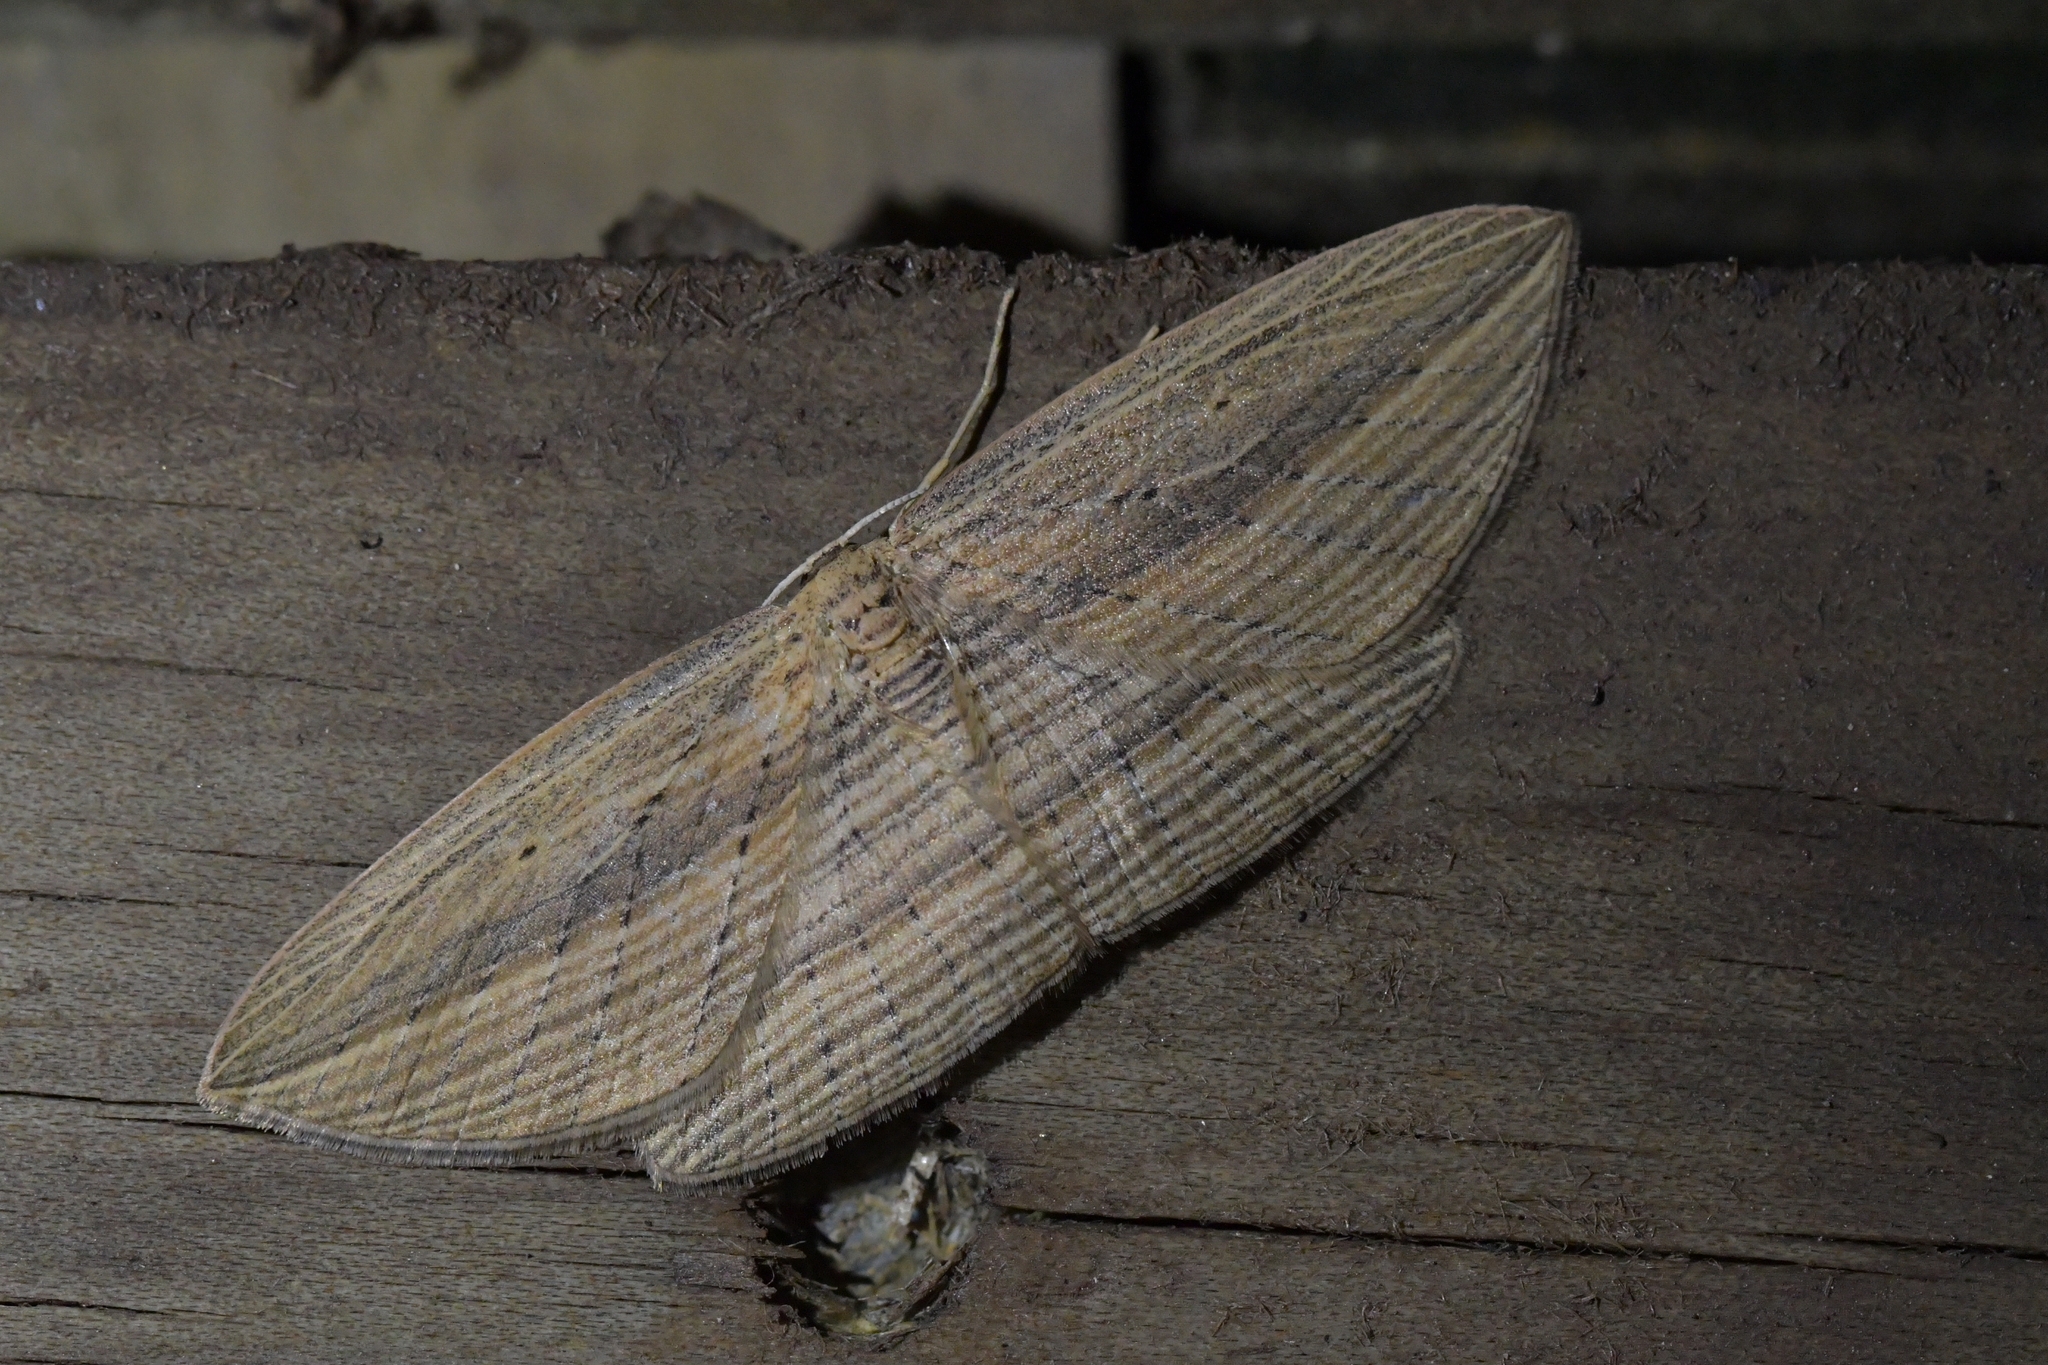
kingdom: Animalia
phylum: Arthropoda
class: Insecta
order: Lepidoptera
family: Geometridae
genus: Epiphryne
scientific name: Epiphryne verriculata
